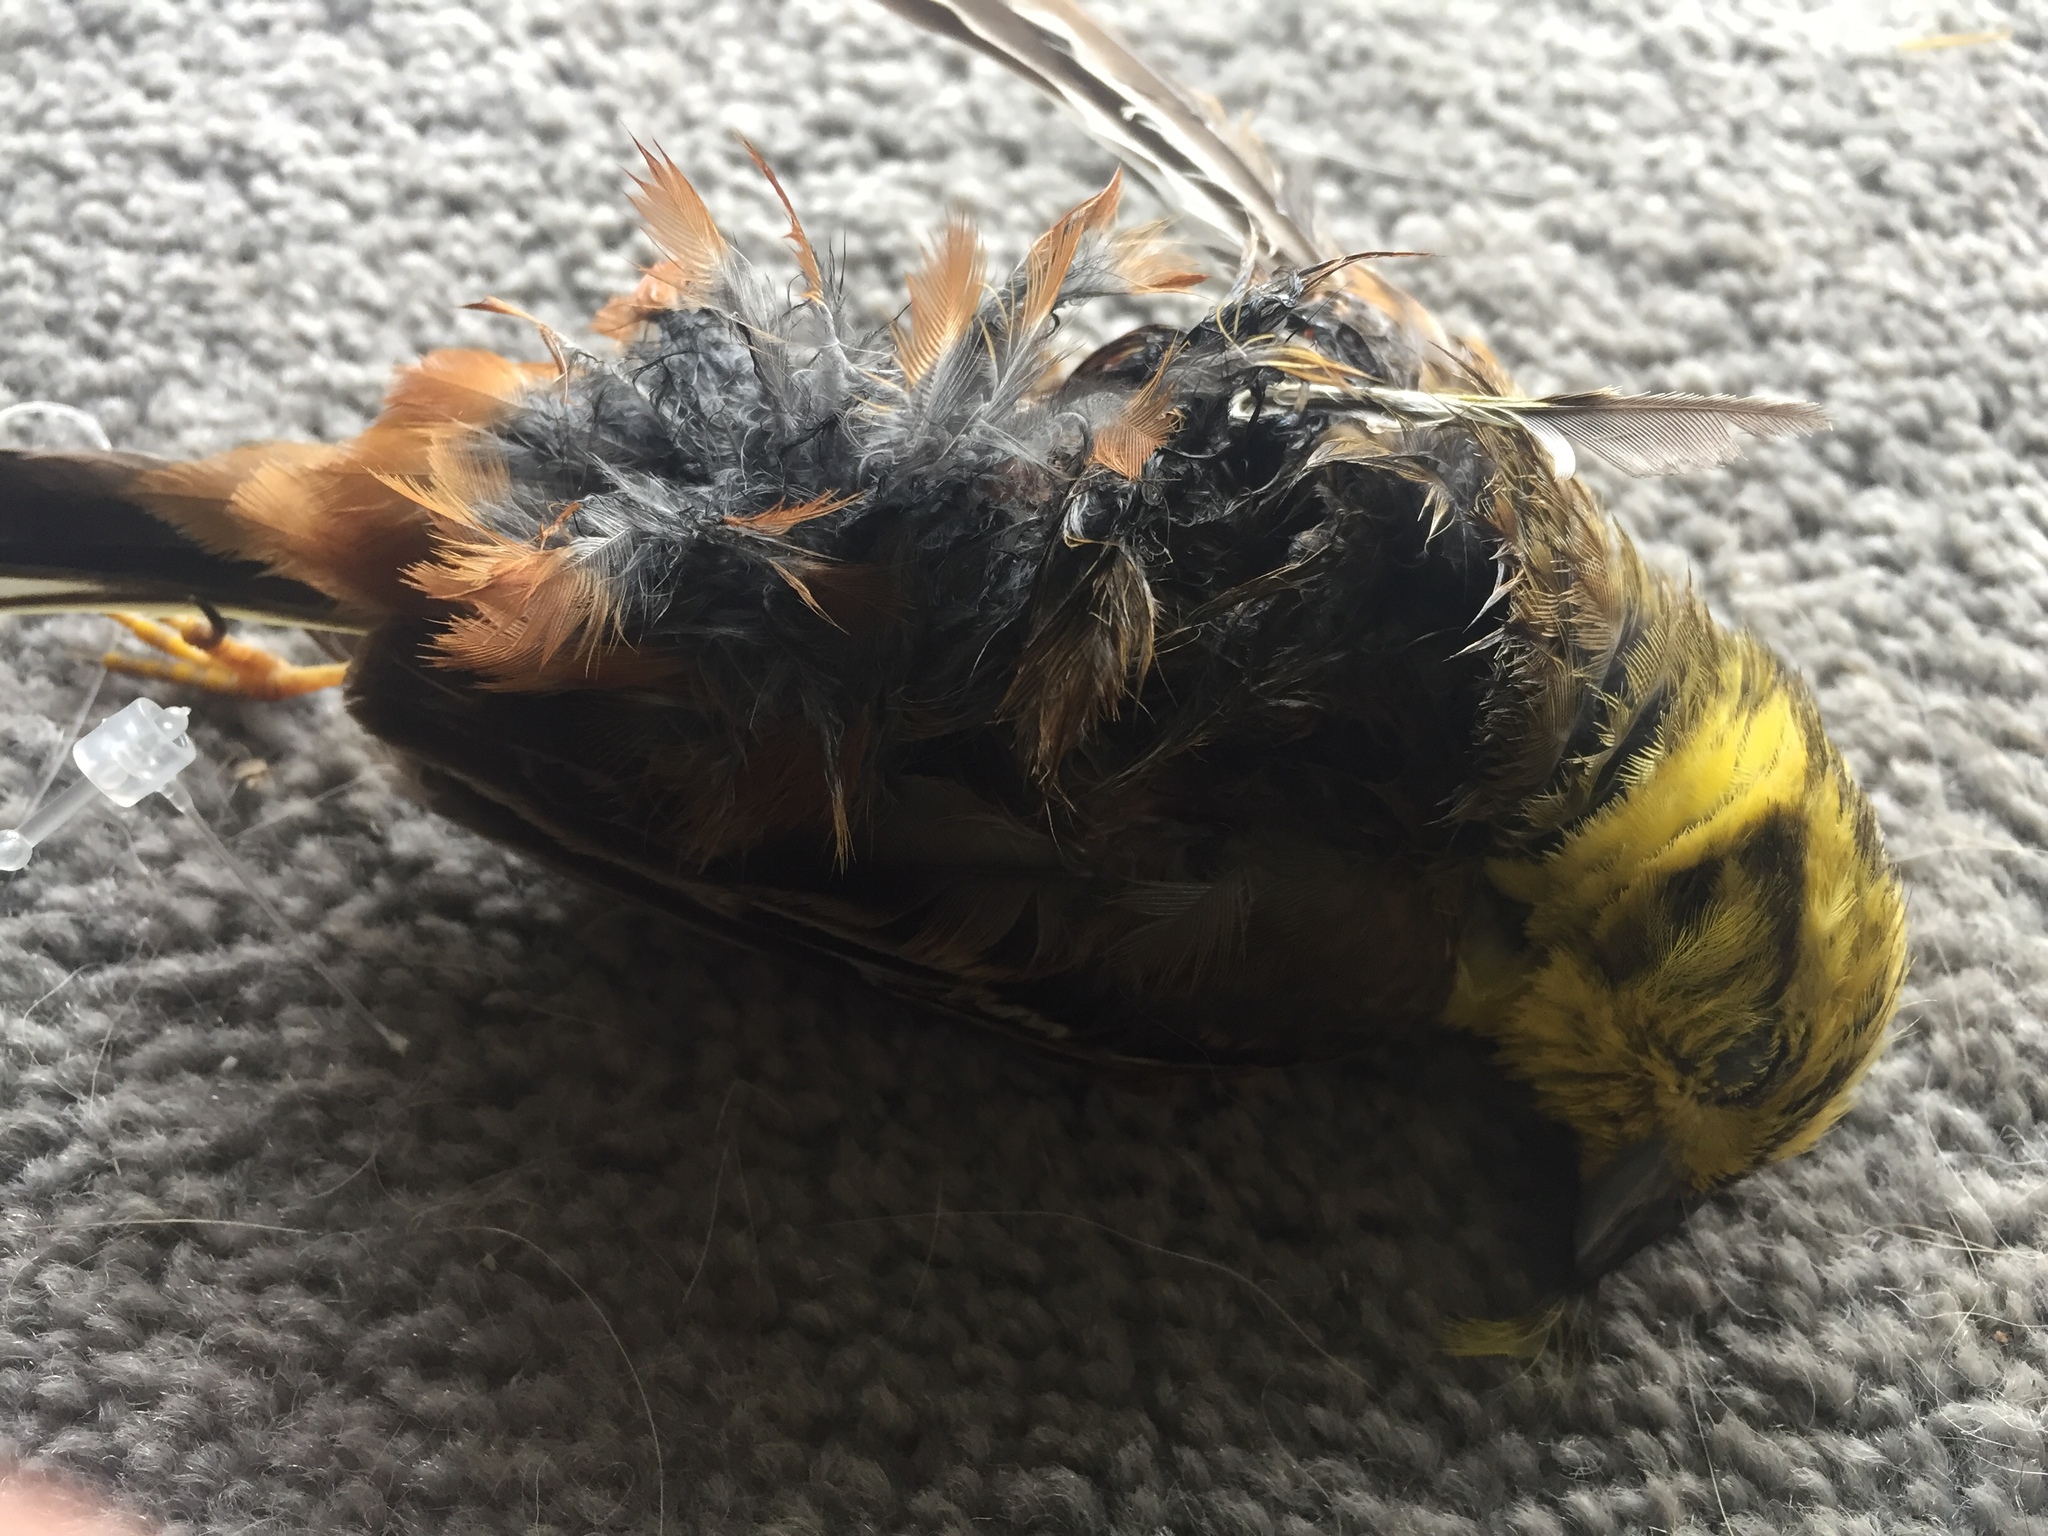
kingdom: Animalia
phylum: Chordata
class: Aves
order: Passeriformes
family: Emberizidae
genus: Emberiza
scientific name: Emberiza citrinella
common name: Yellowhammer
